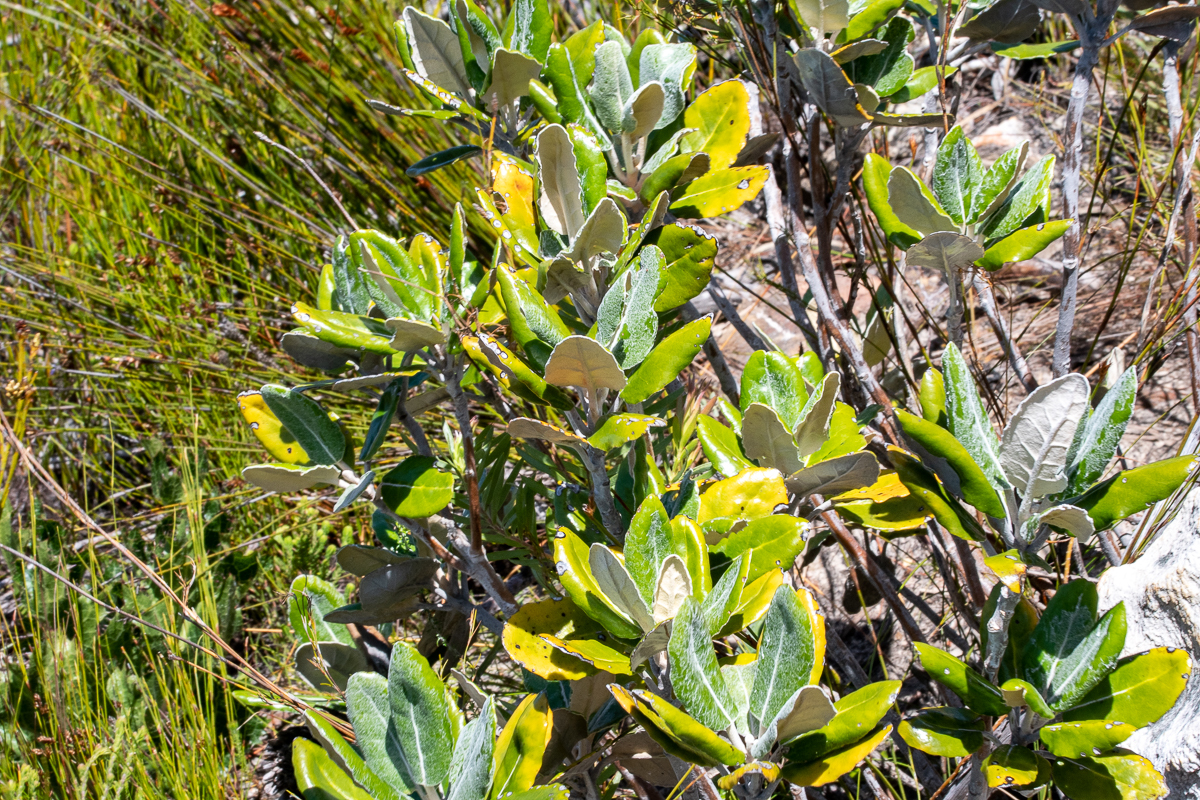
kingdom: Plantae
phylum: Tracheophyta
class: Magnoliopsida
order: Apiales
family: Apiaceae
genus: Hermas
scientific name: Hermas villosa
